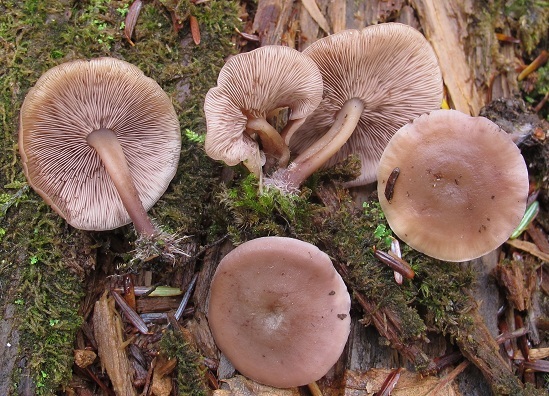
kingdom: Fungi
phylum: Basidiomycota
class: Agaricomycetes
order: Agaricales
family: Marasmiaceae
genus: Baeospora
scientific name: Baeospora myriadophylla
